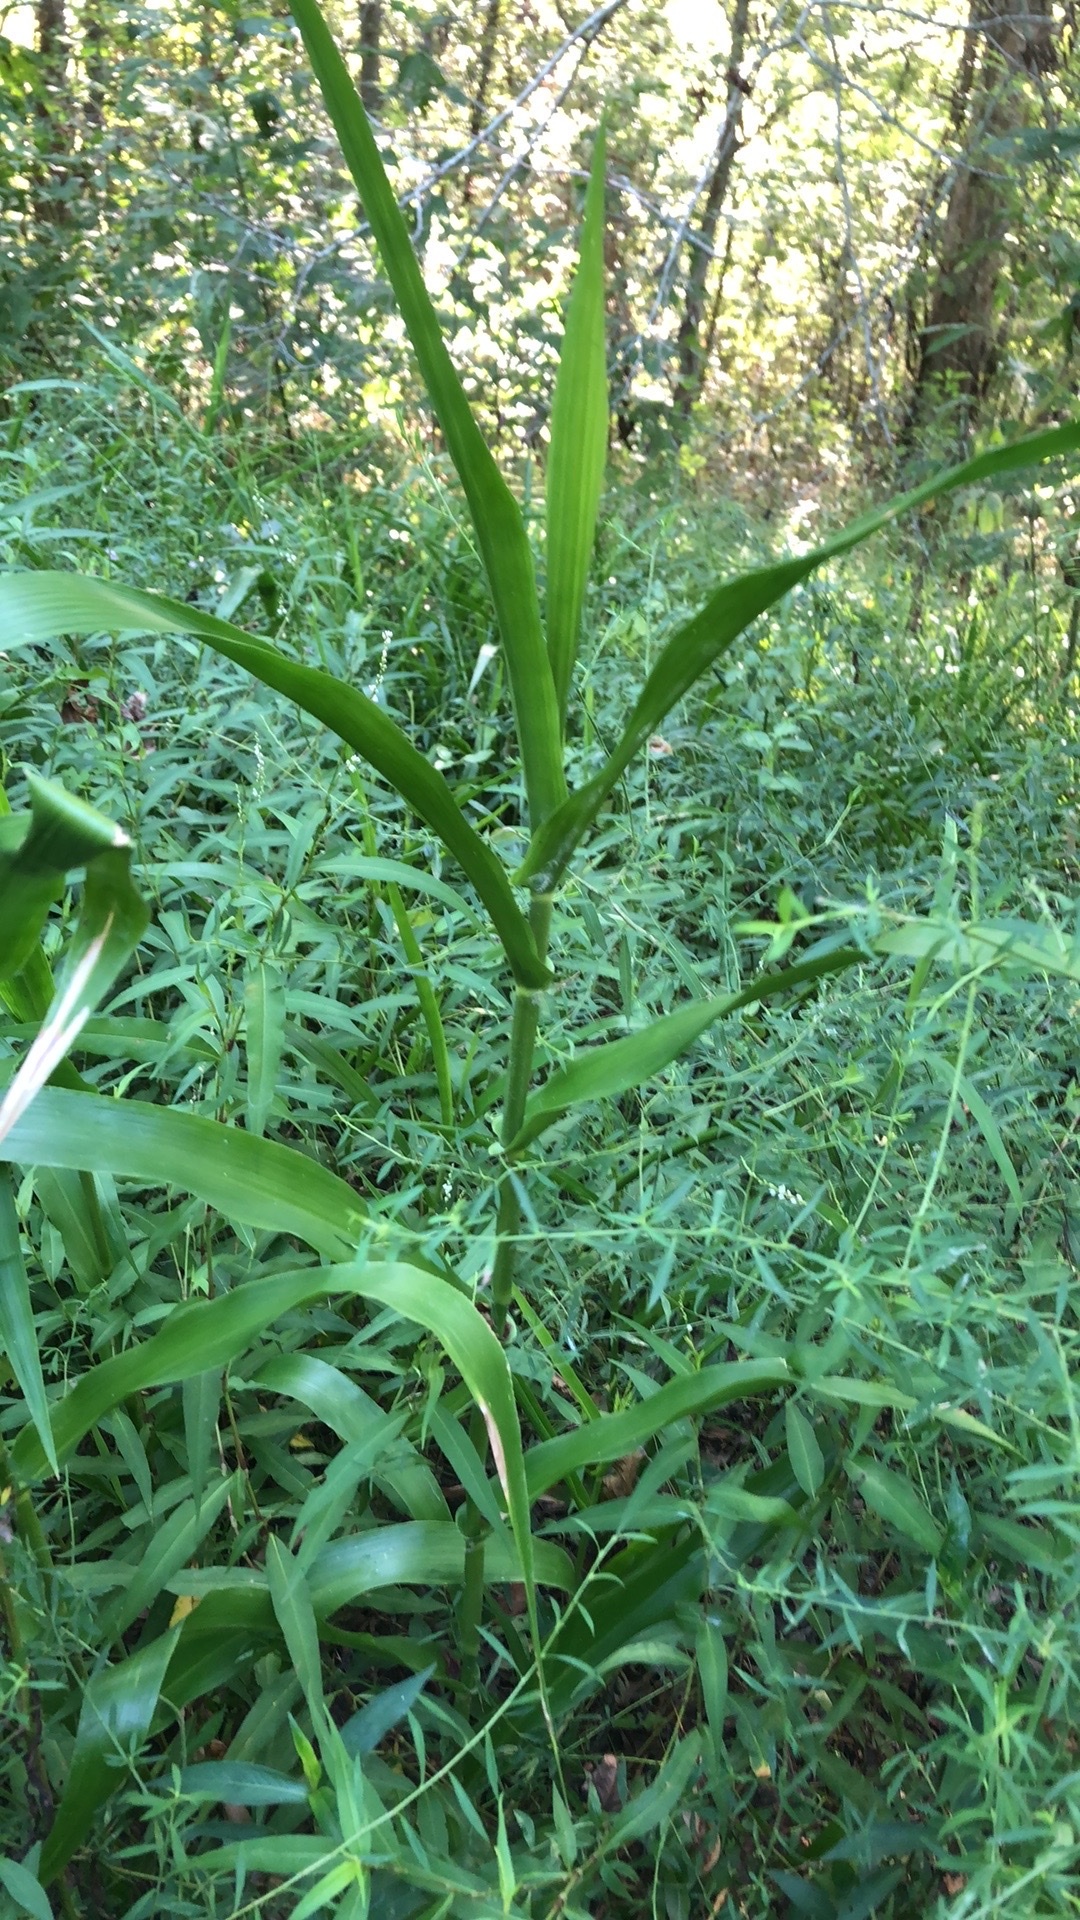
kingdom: Plantae
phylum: Tracheophyta
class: Liliopsida
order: Poales
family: Poaceae
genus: Panicum
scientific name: Panicum gymnocarpon
